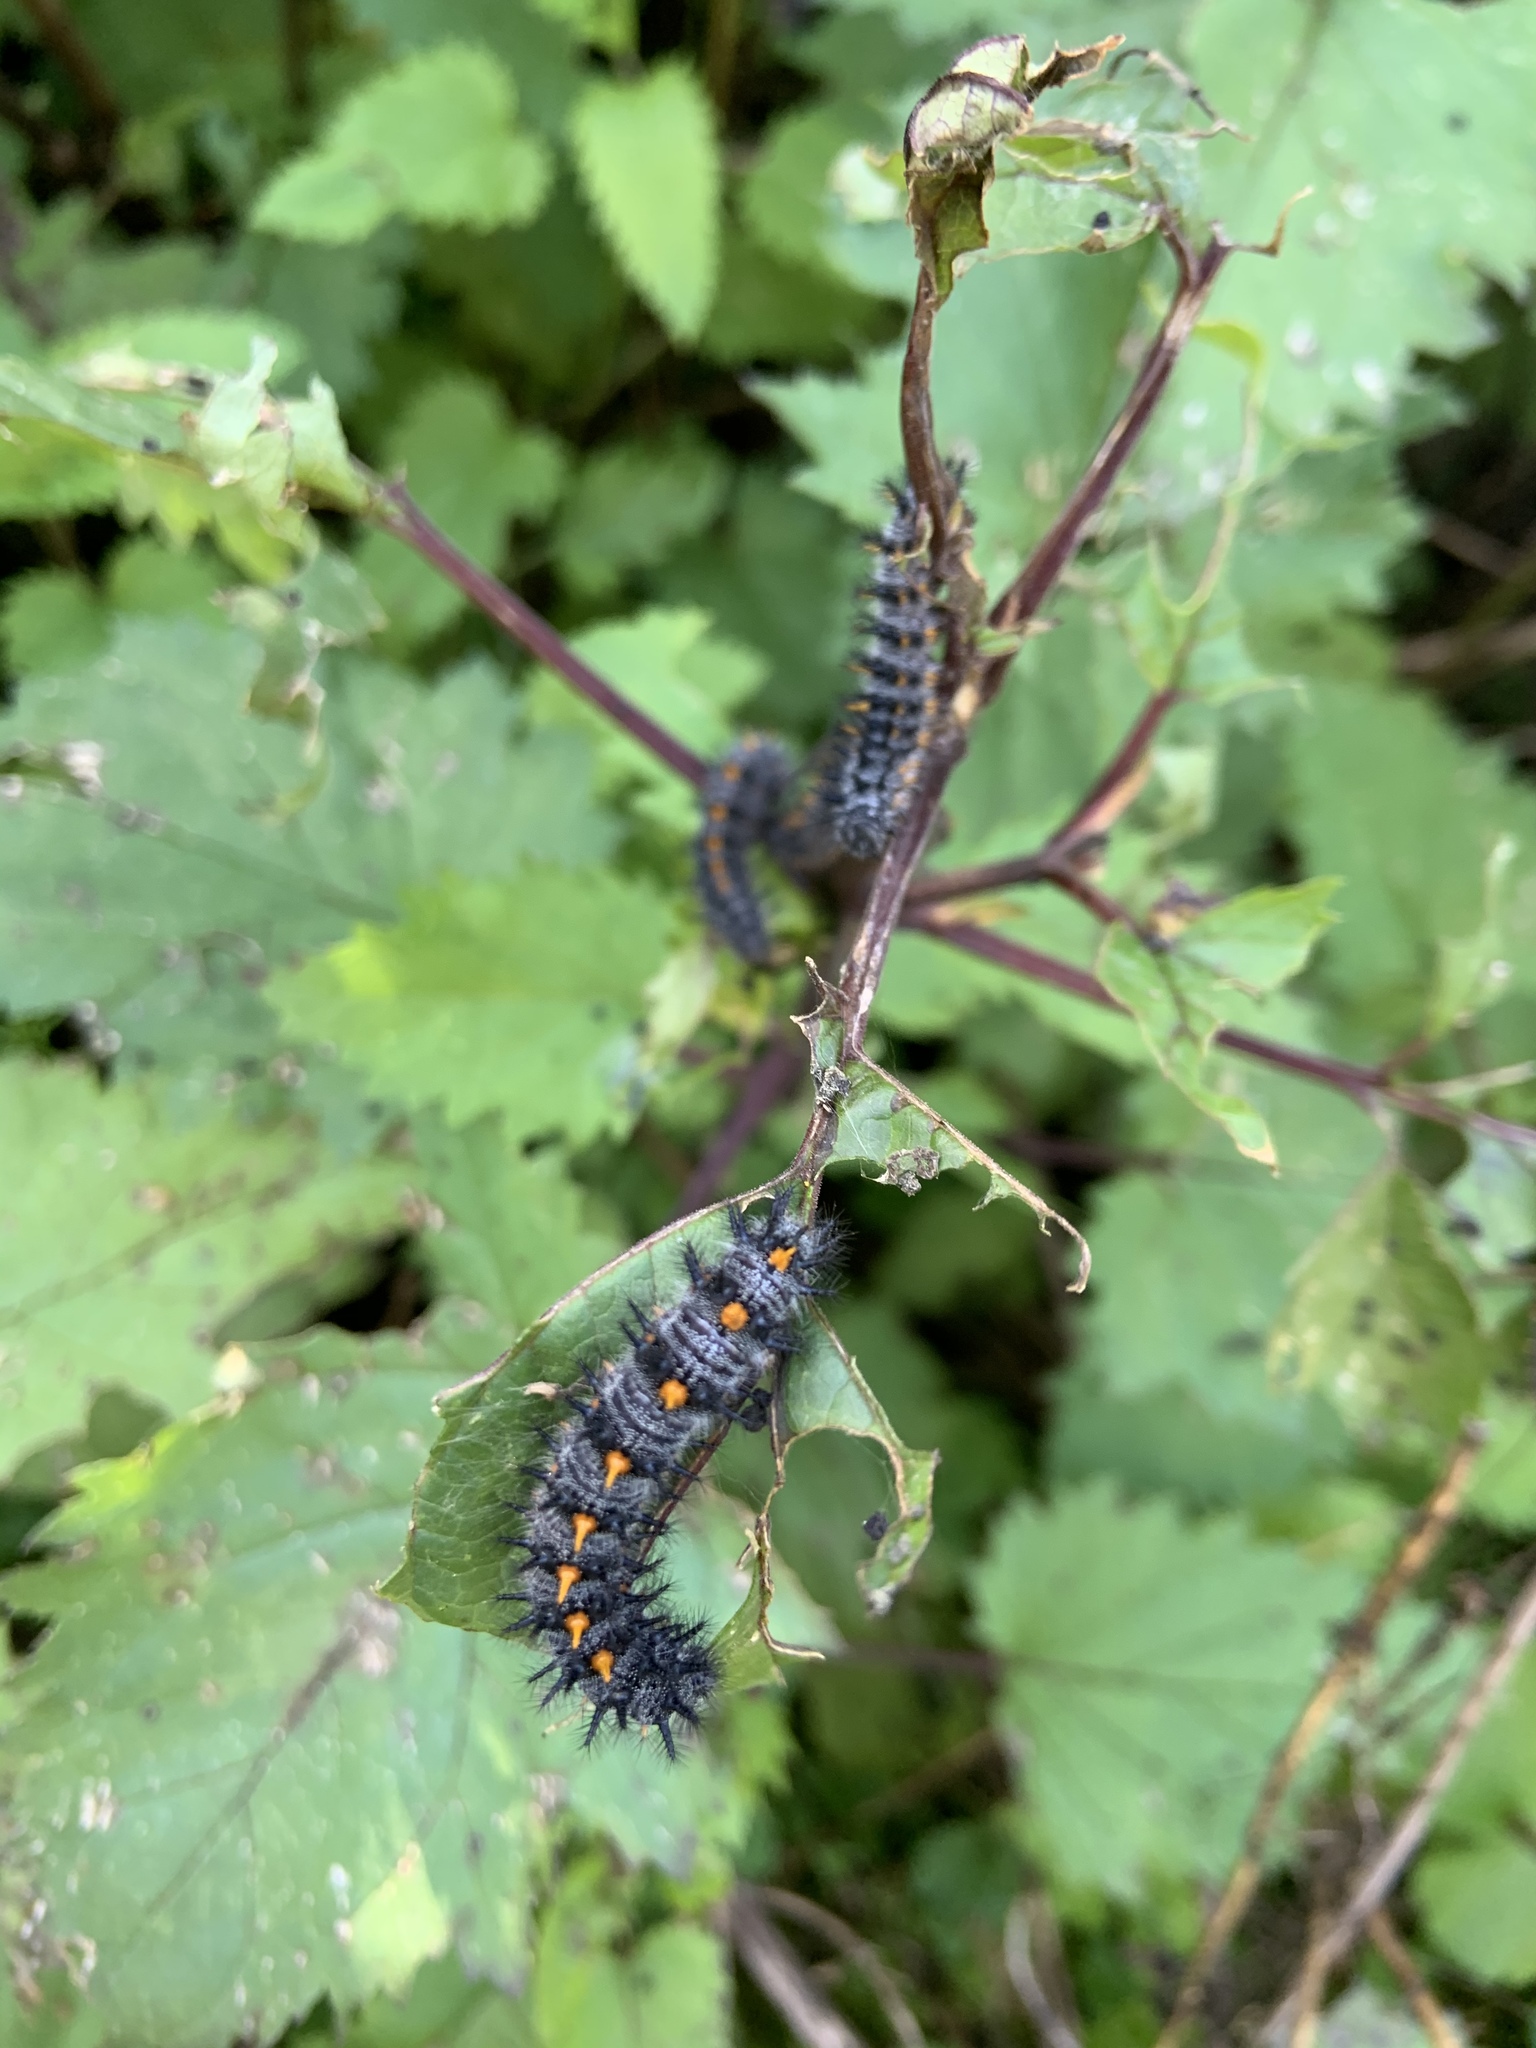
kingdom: Animalia
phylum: Arthropoda
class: Insecta
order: Lepidoptera
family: Nymphalidae
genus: Occidryas
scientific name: Occidryas chalcedona
